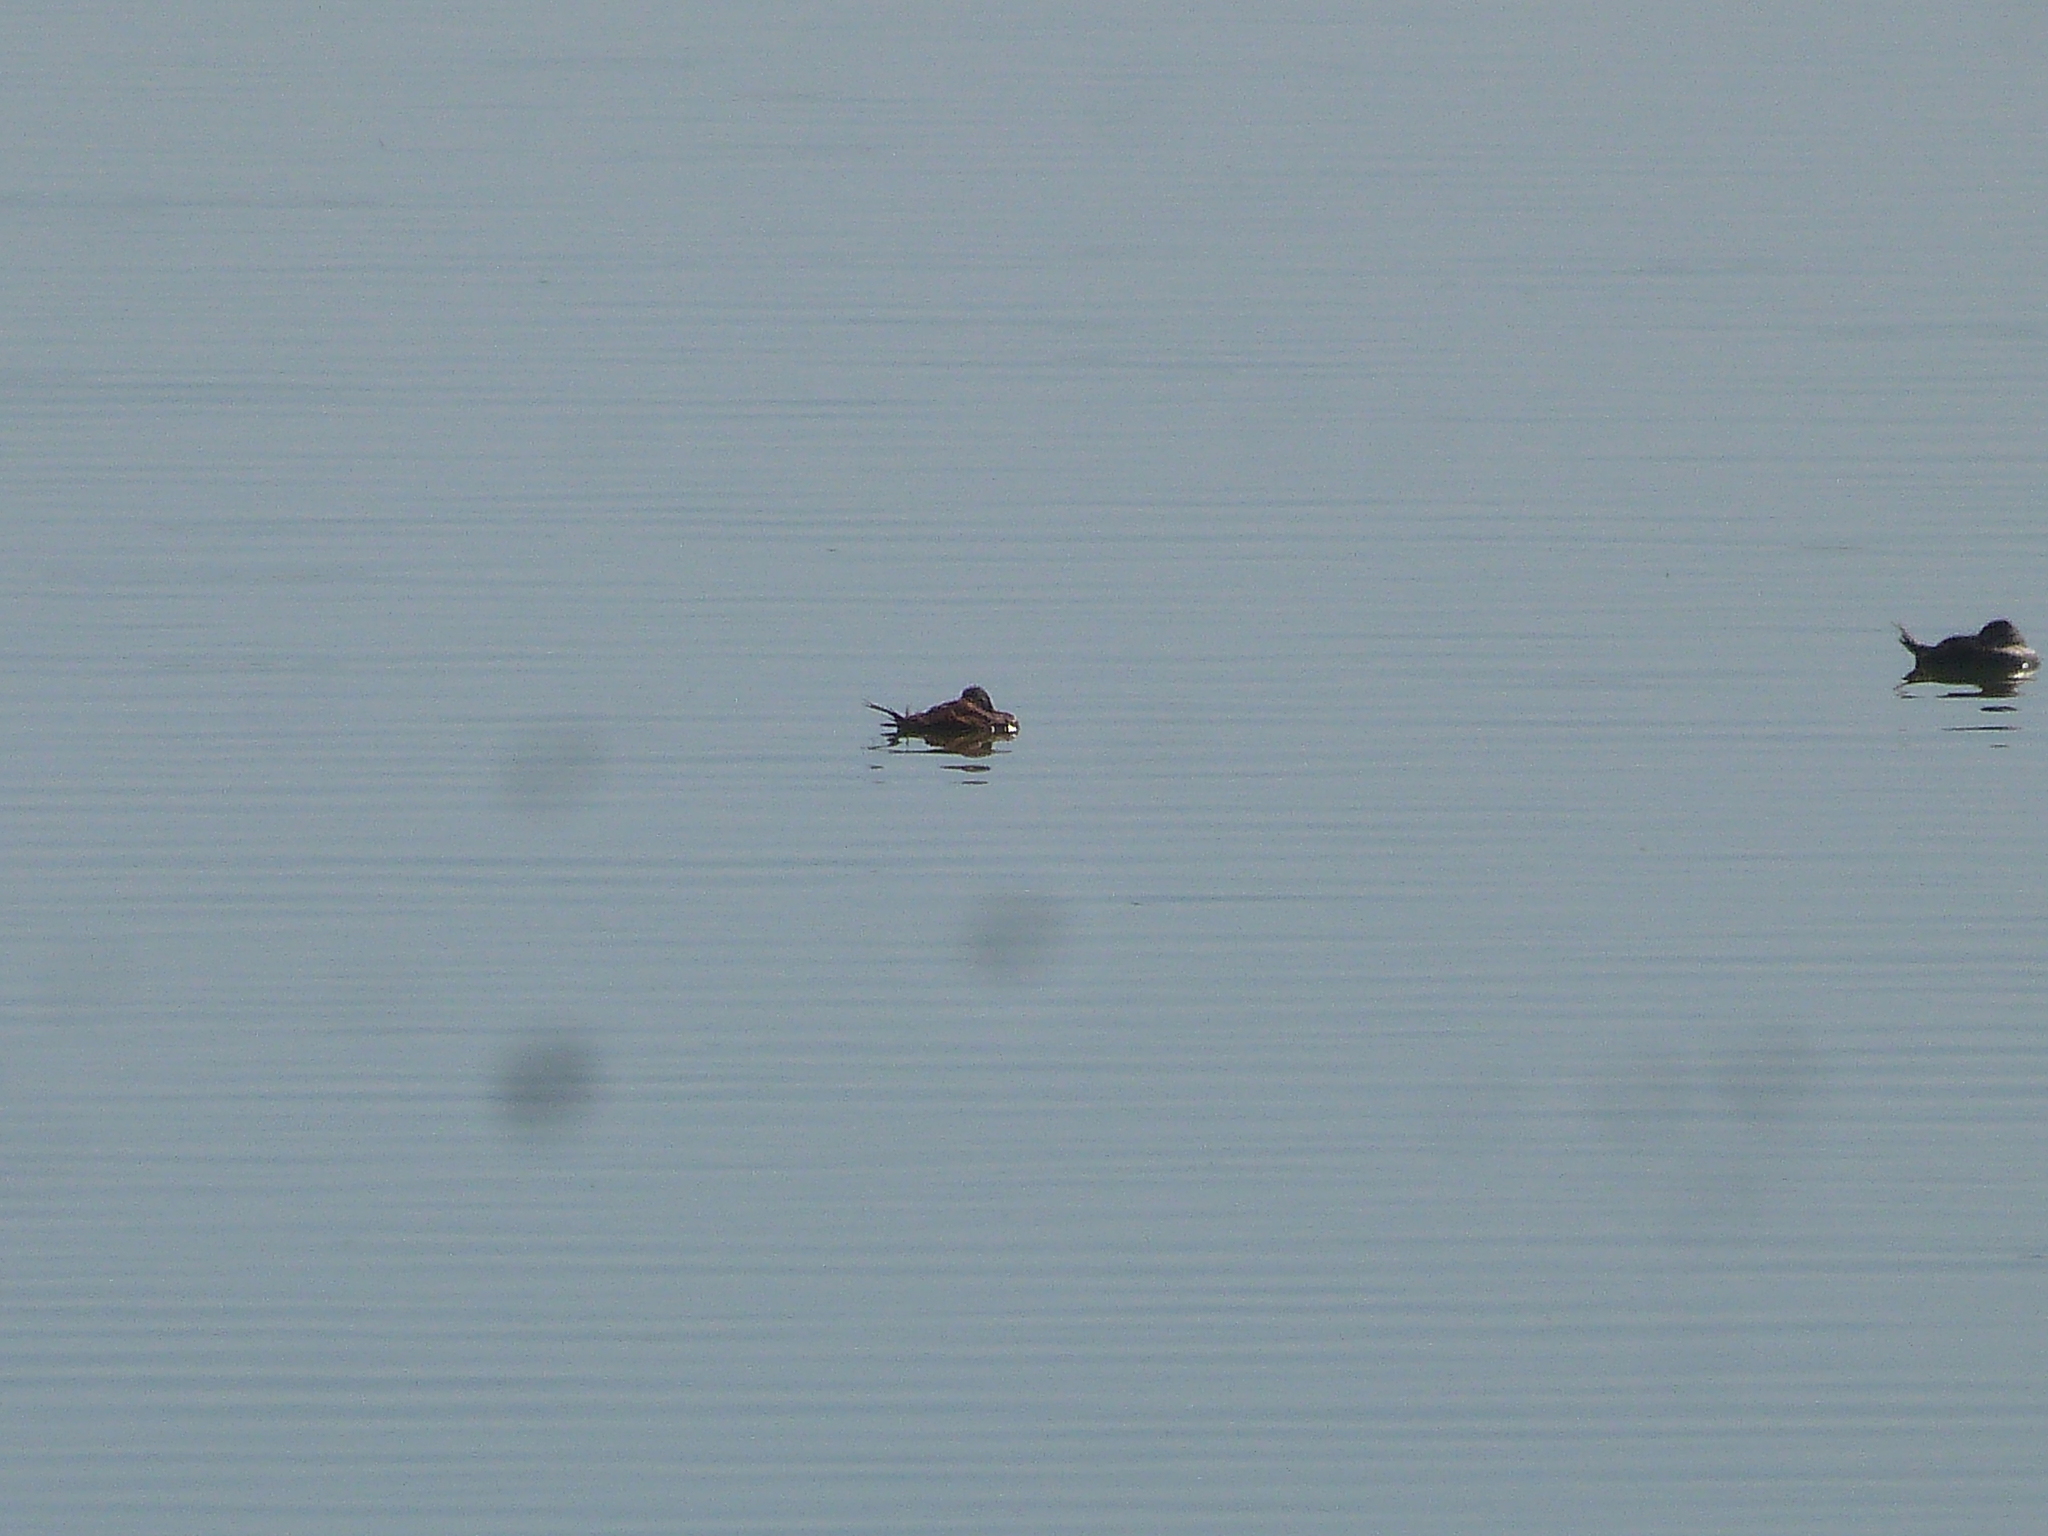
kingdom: Animalia
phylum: Chordata
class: Aves
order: Anseriformes
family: Anatidae
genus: Oxyura
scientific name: Oxyura vittata
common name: Lake duck
